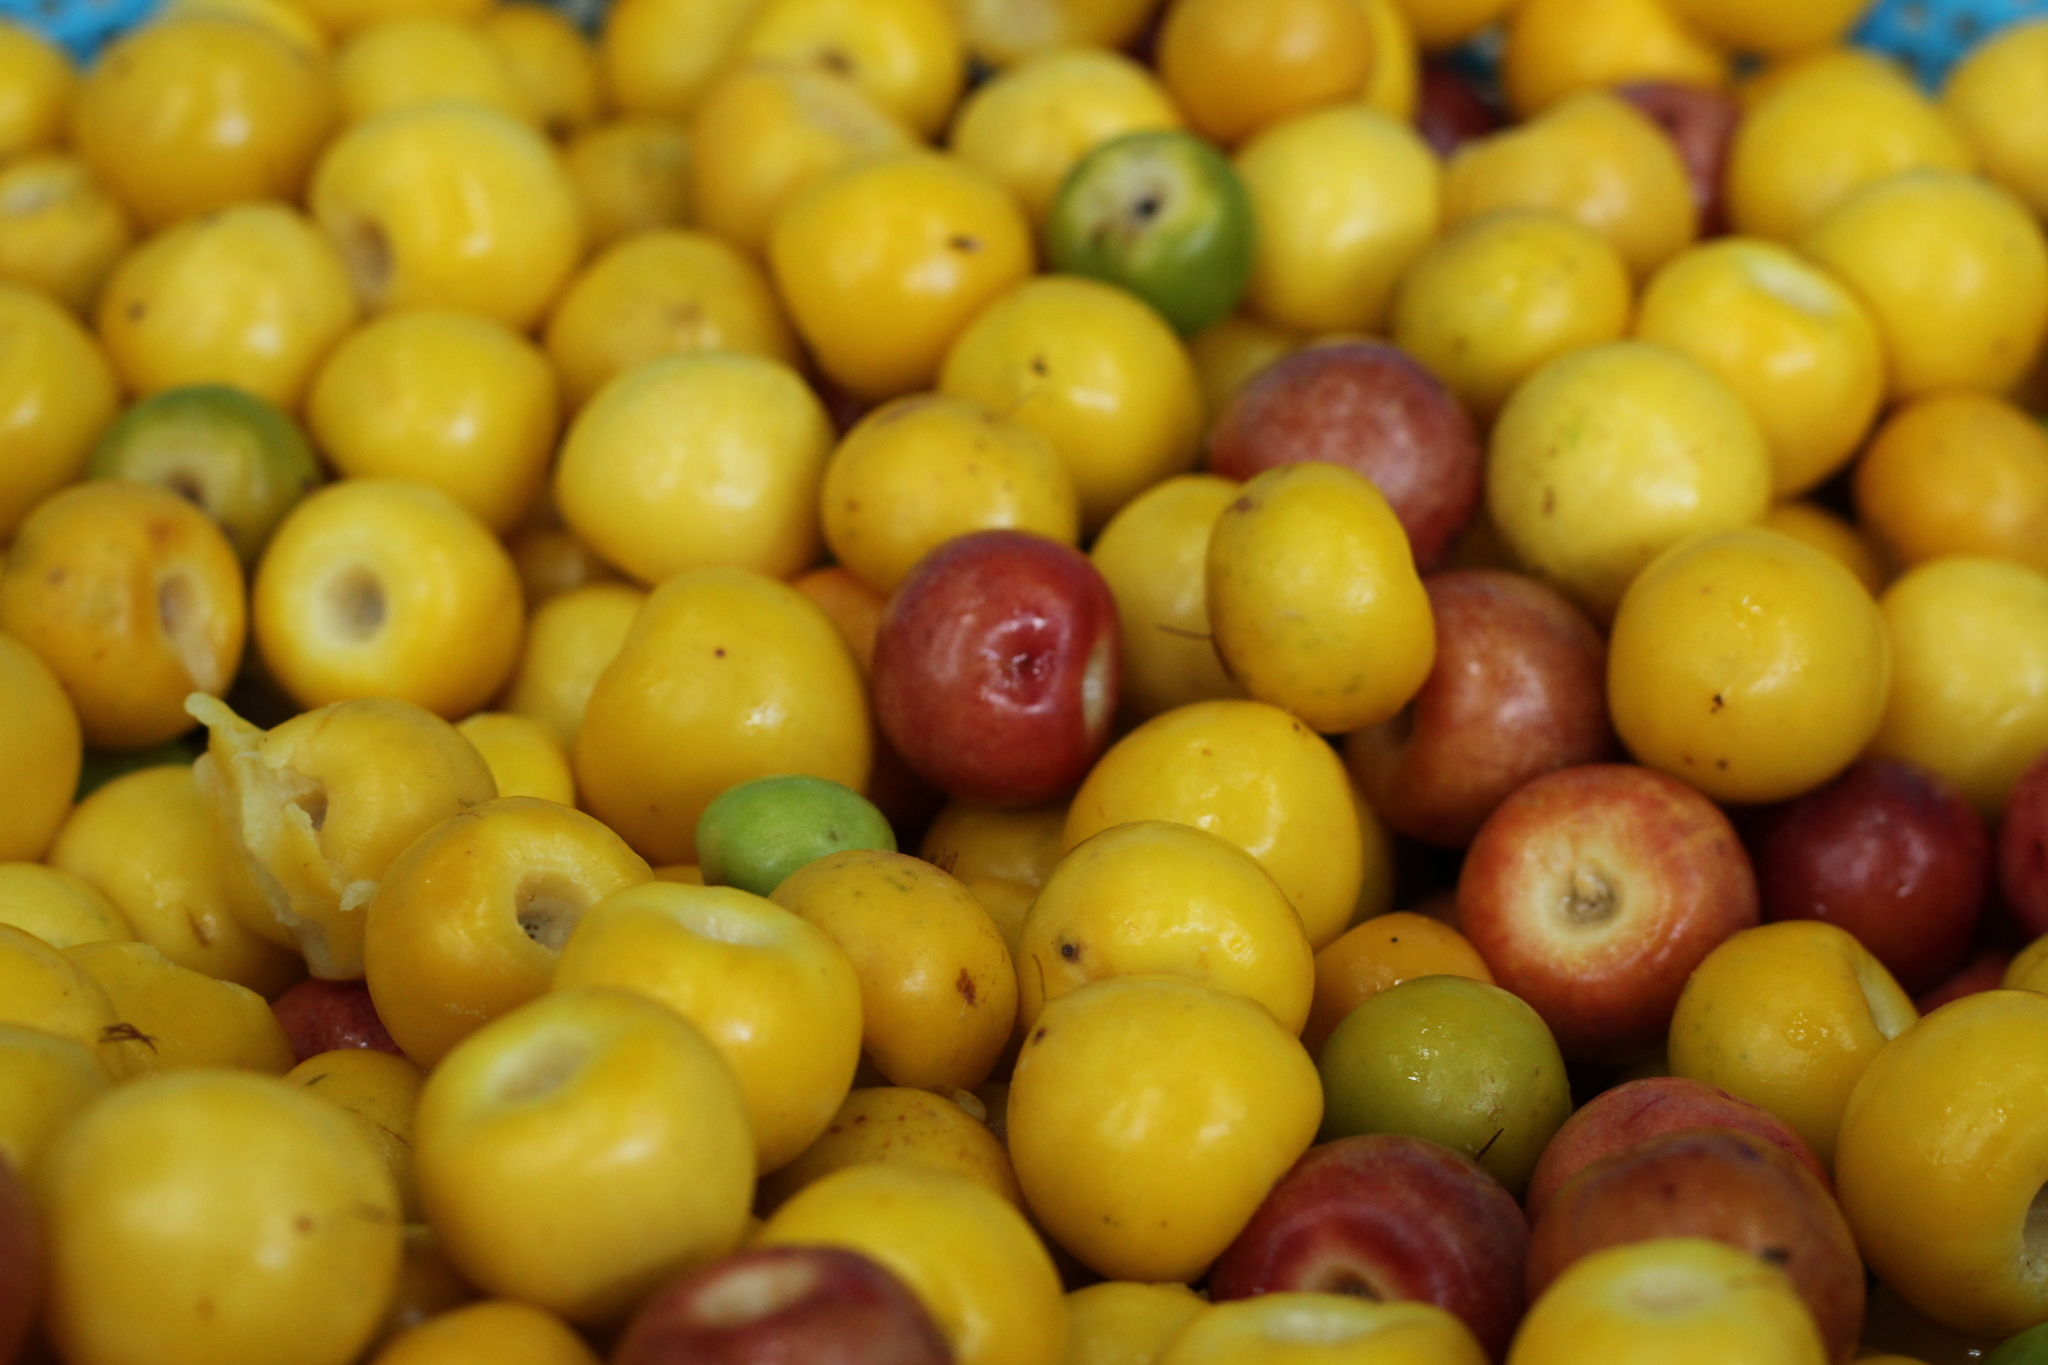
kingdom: Plantae
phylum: Tracheophyta
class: Magnoliopsida
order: Malpighiales
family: Malpighiaceae
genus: Byrsonima
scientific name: Byrsonima crassifolia
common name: Golden spoon
